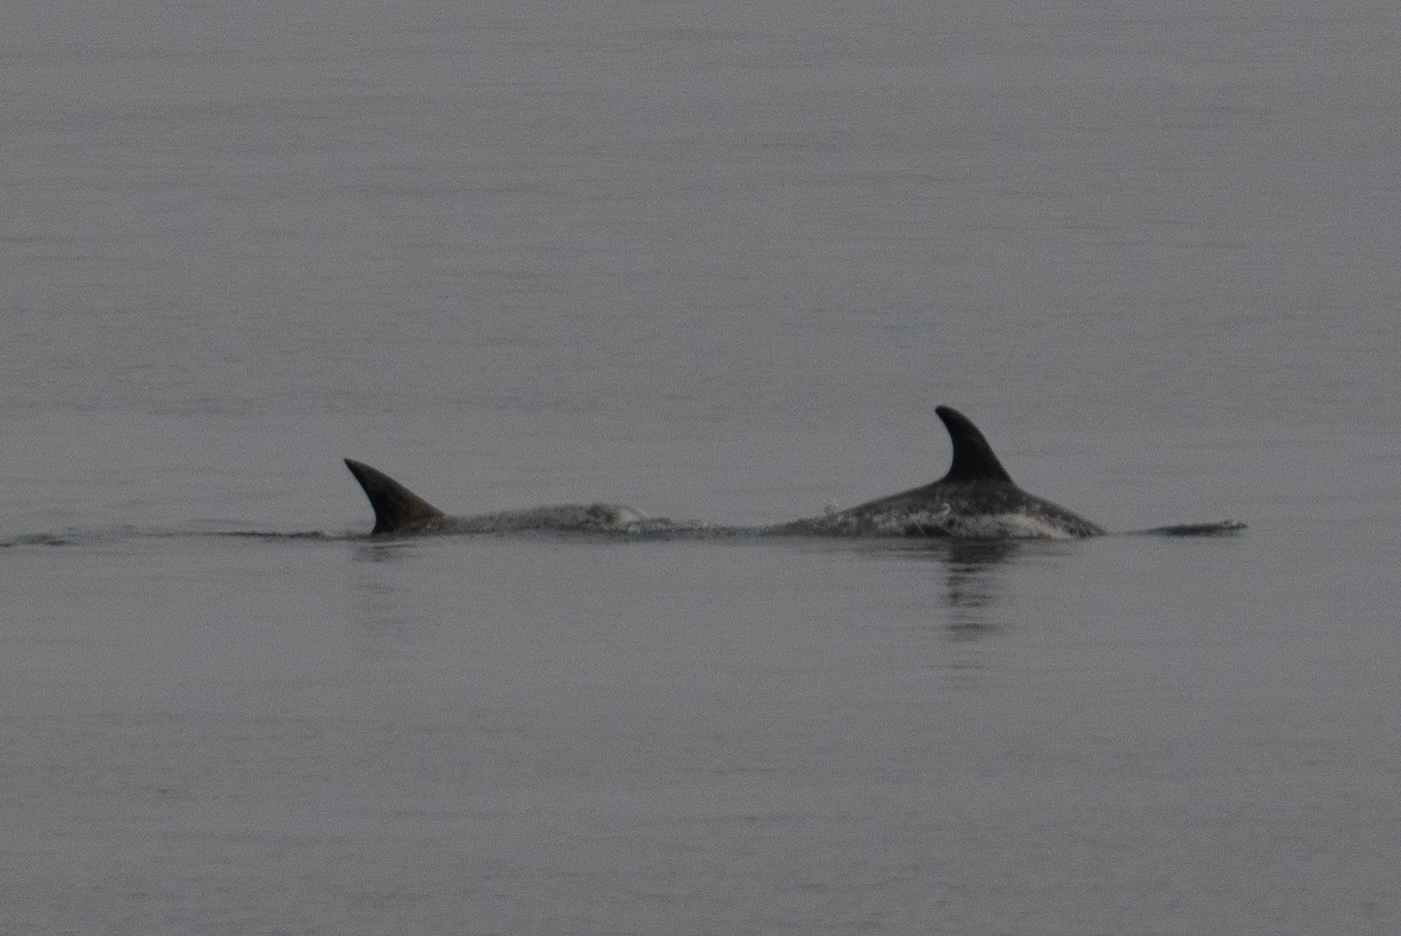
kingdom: Animalia
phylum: Chordata
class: Mammalia
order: Cetacea
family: Delphinidae
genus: Grampus
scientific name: Grampus griseus
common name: Risso's dolphin
